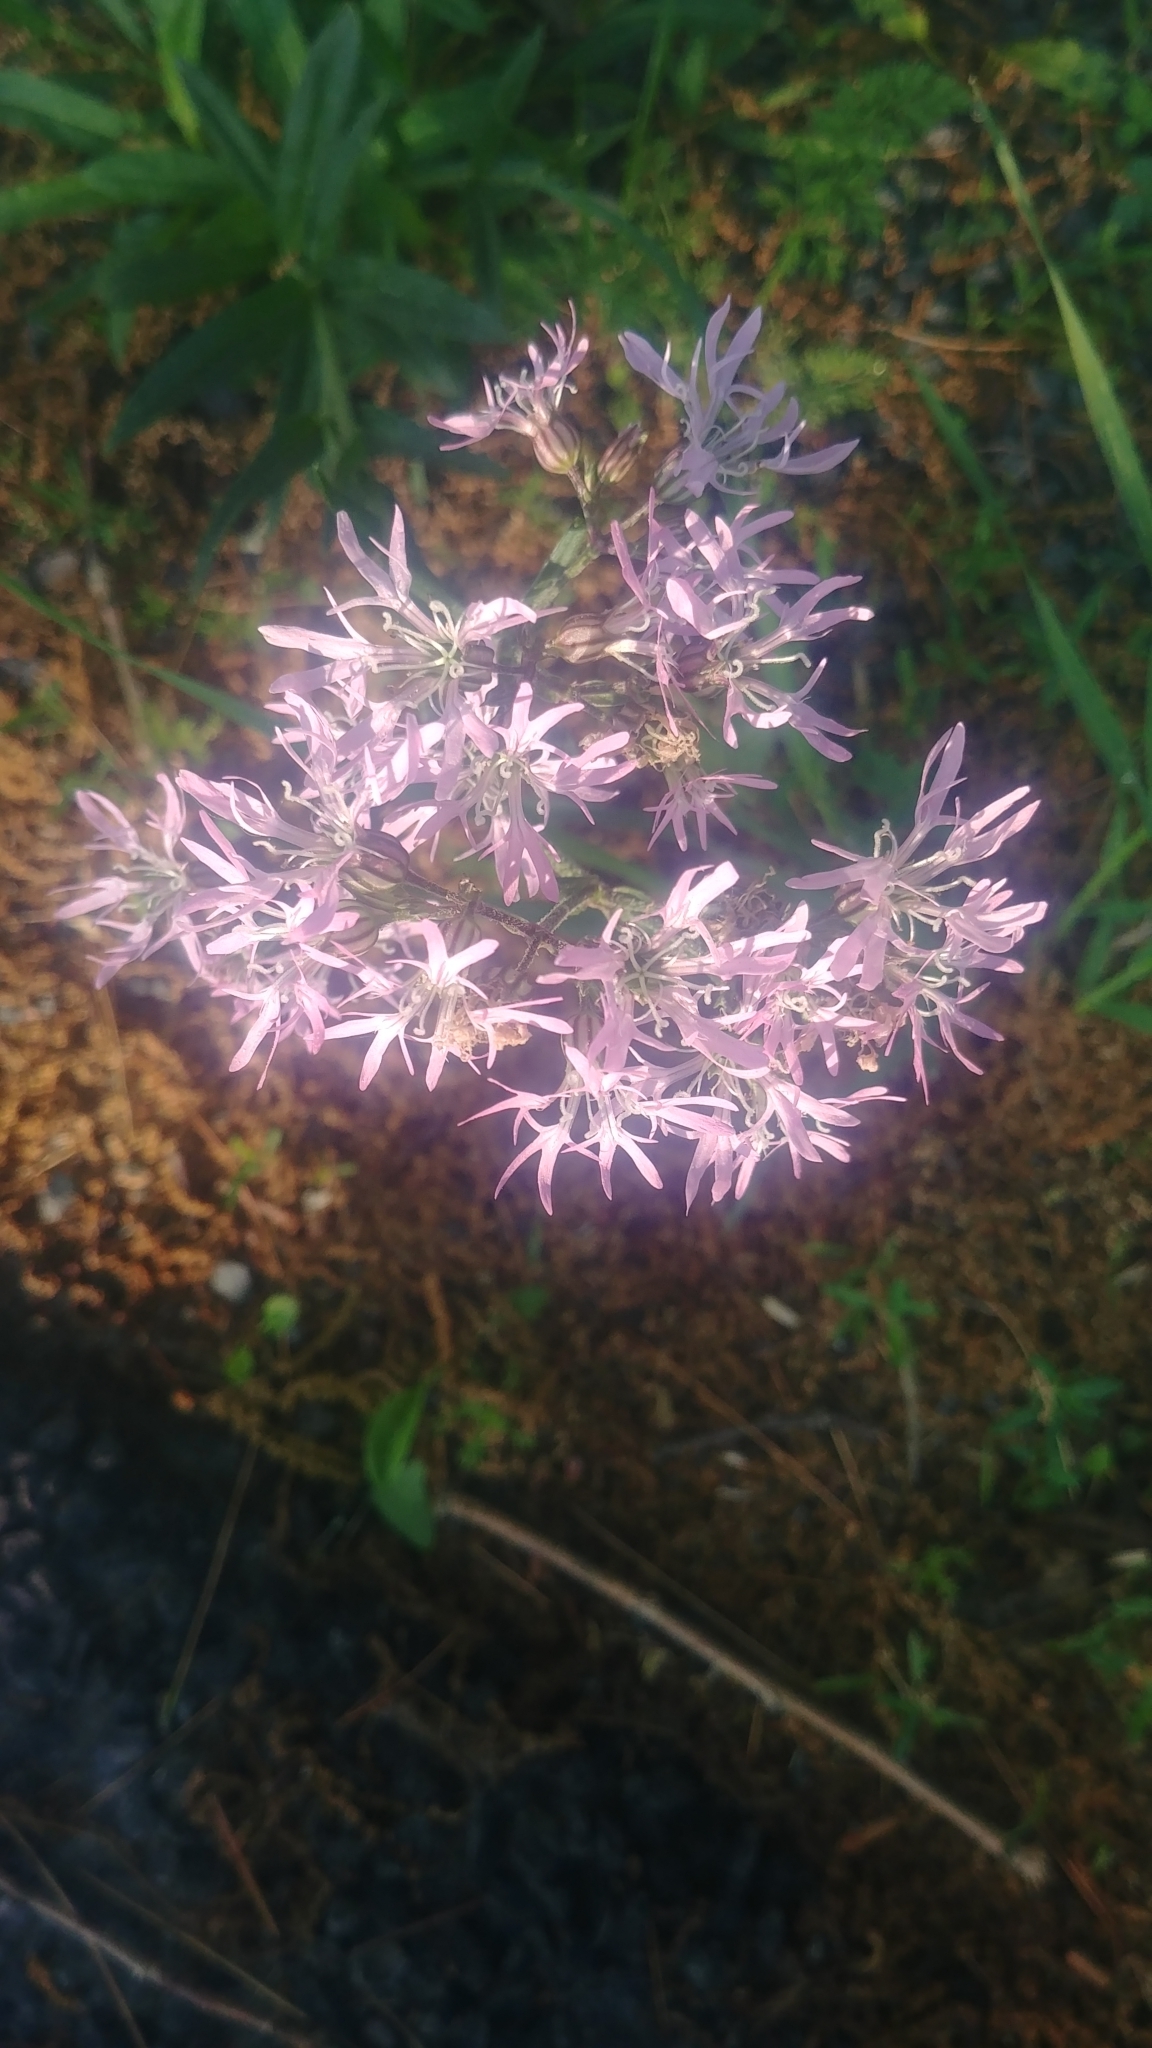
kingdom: Plantae
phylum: Tracheophyta
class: Magnoliopsida
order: Caryophyllales
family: Caryophyllaceae
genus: Silene
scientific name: Silene flos-cuculi
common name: Ragged-robin
